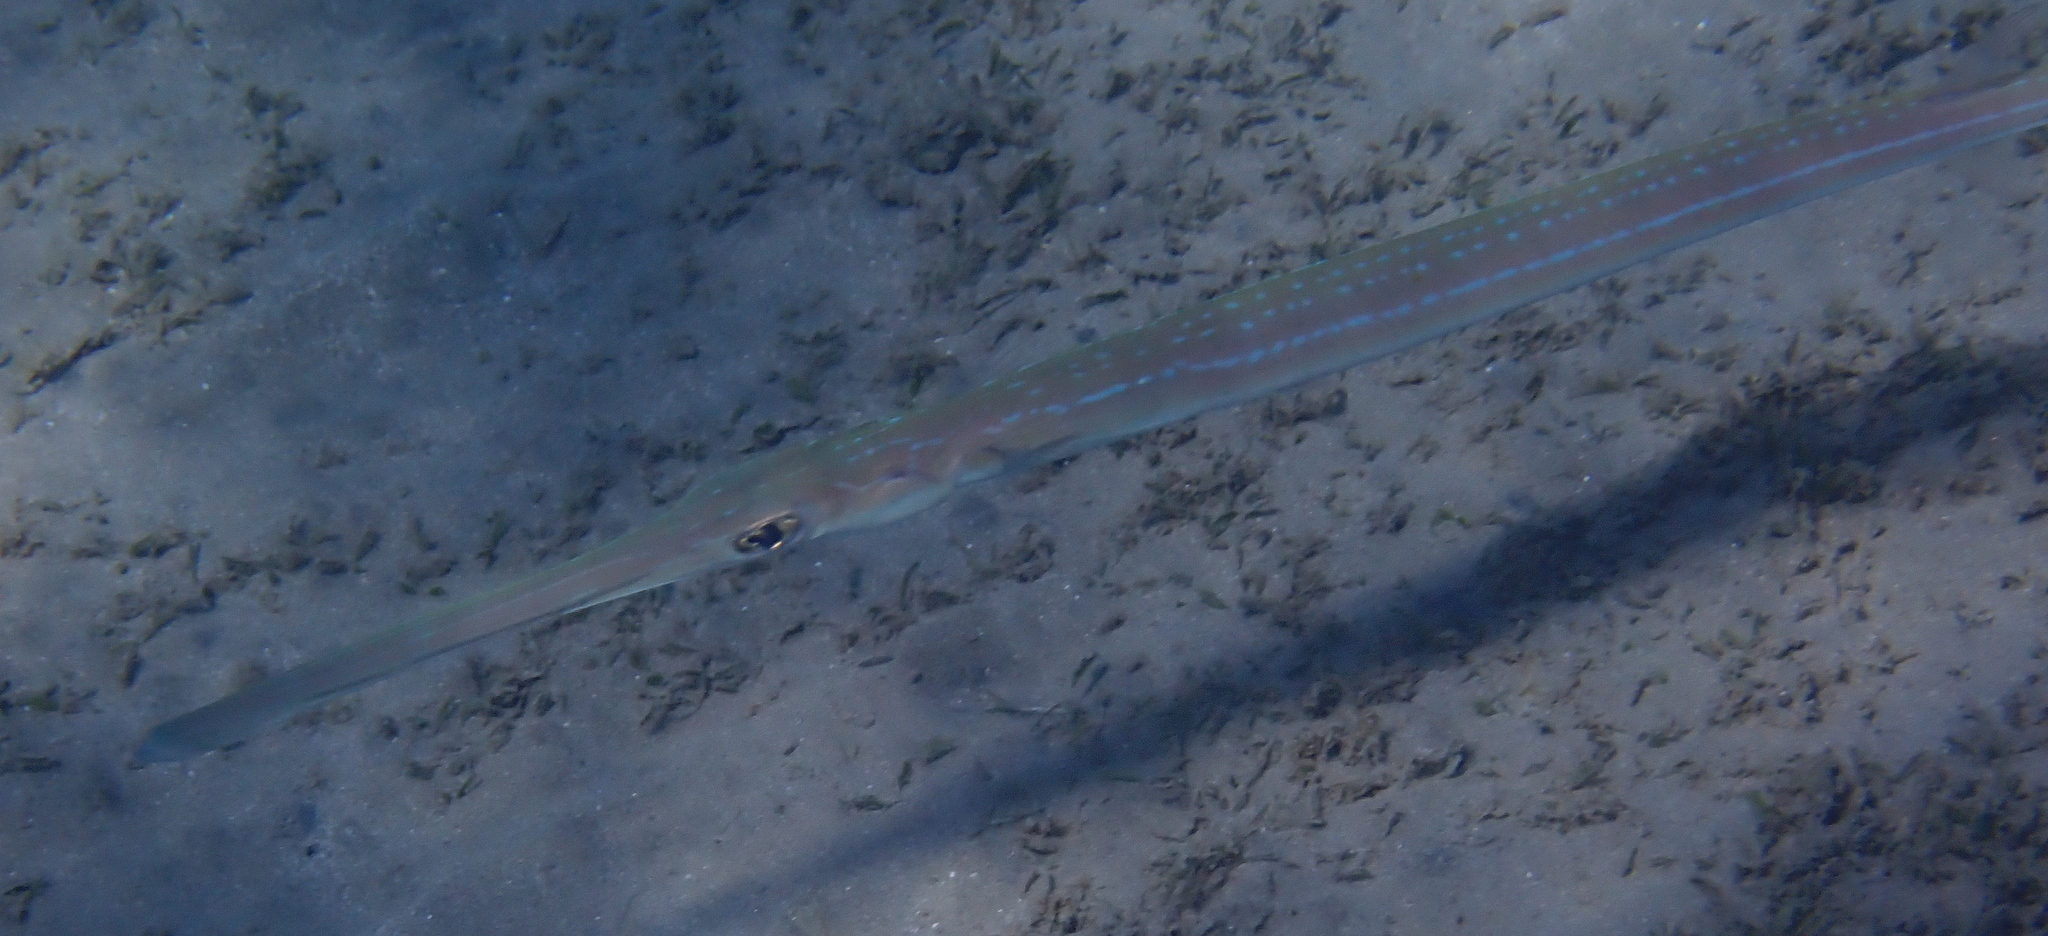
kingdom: Animalia
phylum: Chordata
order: Syngnathiformes
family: Fistulariidae
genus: Fistularia
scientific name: Fistularia commersonii
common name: Bluespotted cornetfish
